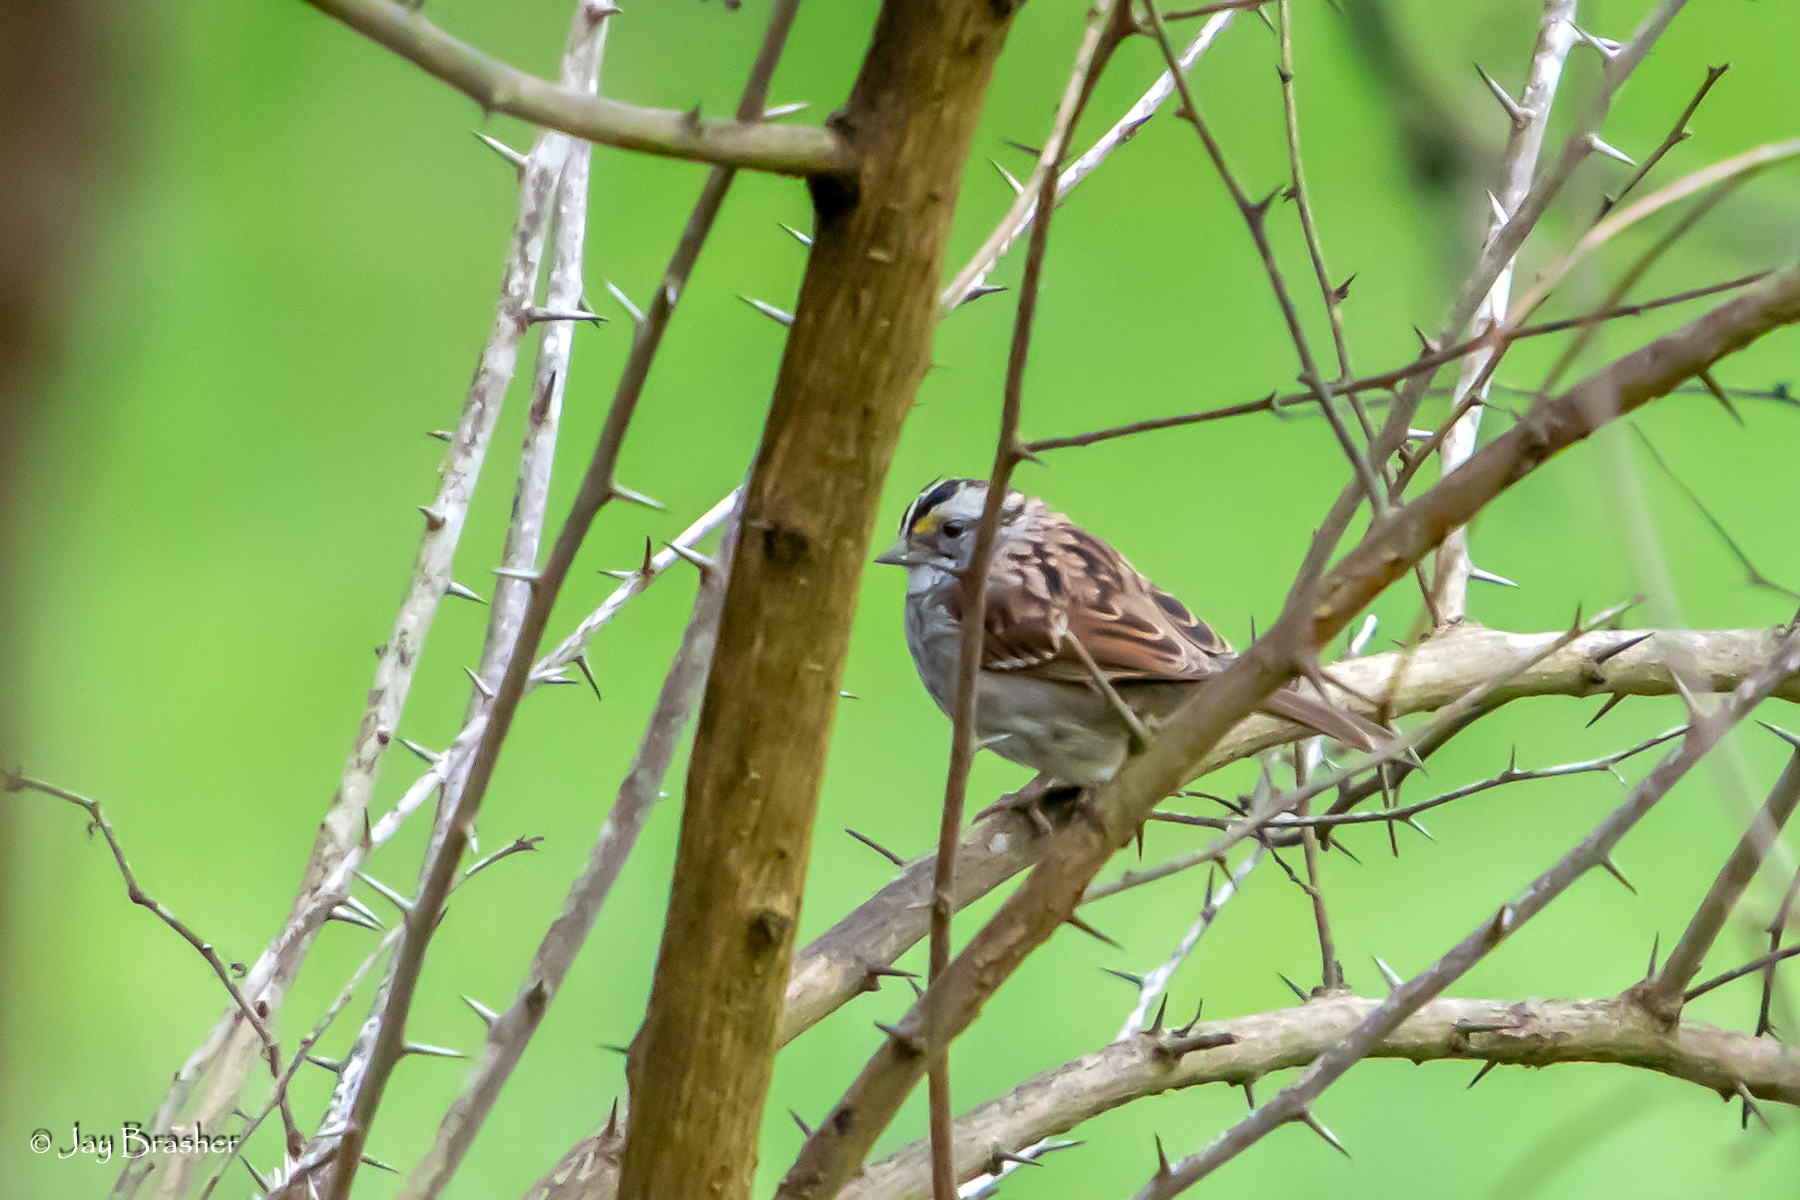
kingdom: Animalia
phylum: Chordata
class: Aves
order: Passeriformes
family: Passerellidae
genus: Zonotrichia
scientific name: Zonotrichia albicollis
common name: White-throated sparrow
